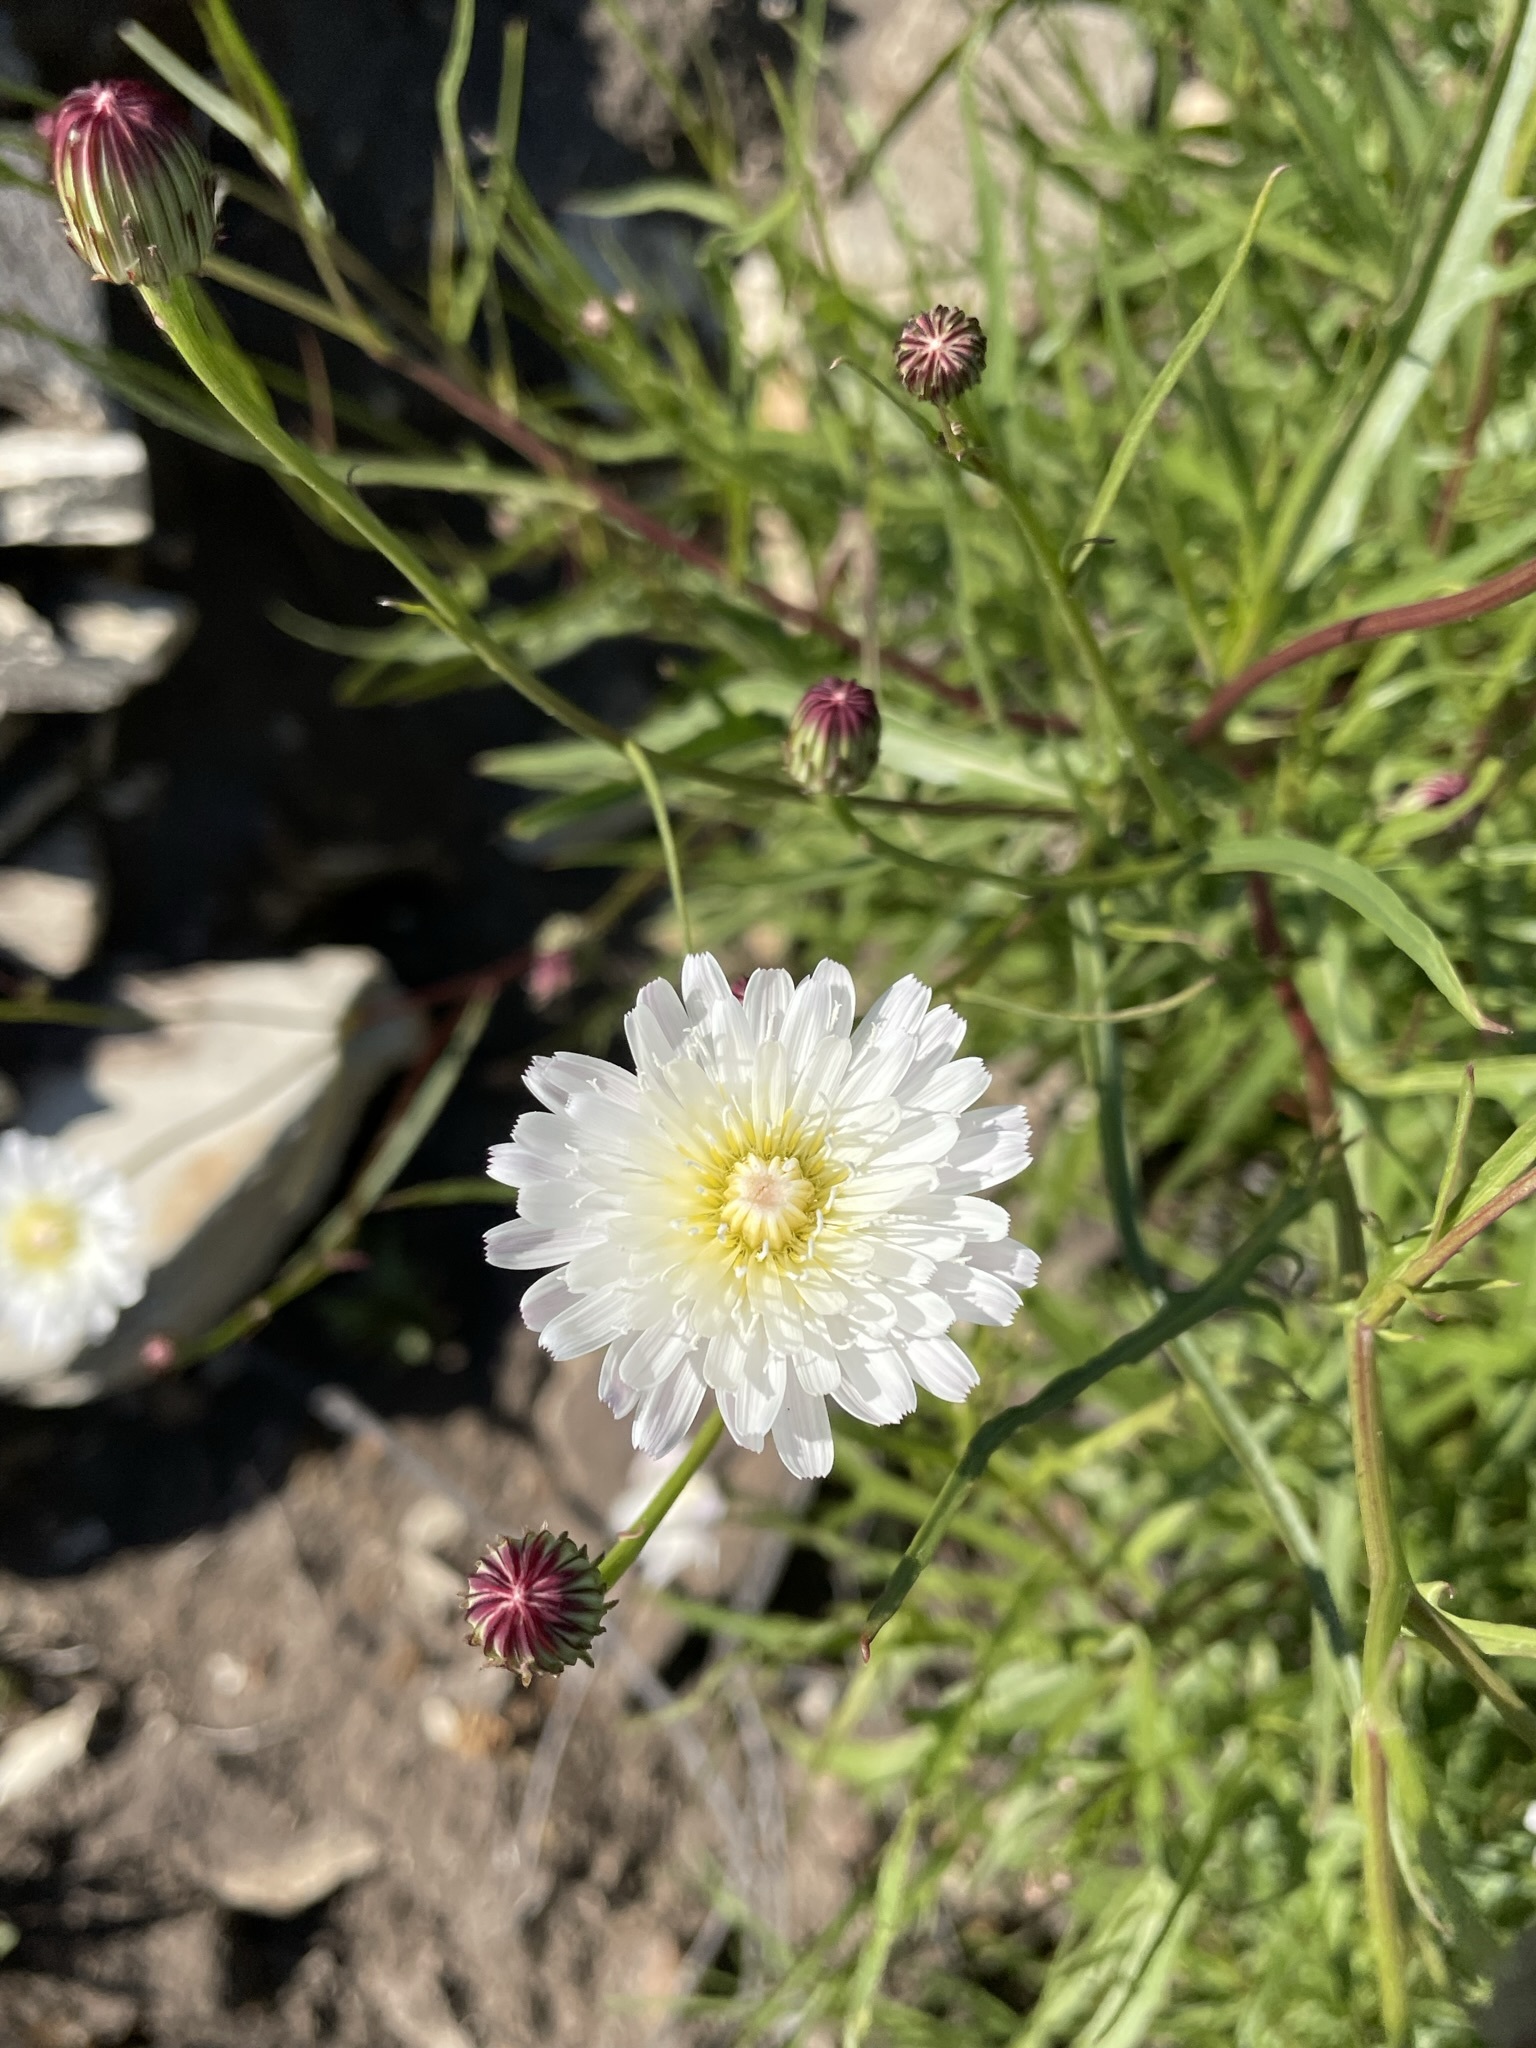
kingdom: Plantae
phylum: Tracheophyta
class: Magnoliopsida
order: Asterales
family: Asteraceae
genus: Malacothrix
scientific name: Malacothrix saxatilis
